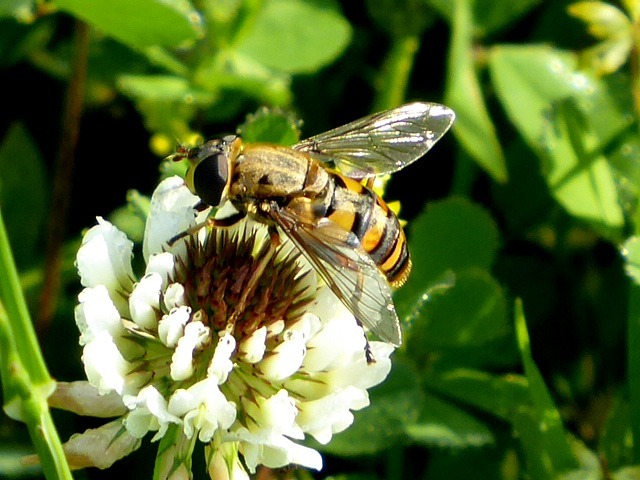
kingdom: Animalia
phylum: Arthropoda
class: Insecta
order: Diptera
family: Syrphidae
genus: Helophilus
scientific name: Helophilus fasciatus
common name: Narrow-headed marsh fly
